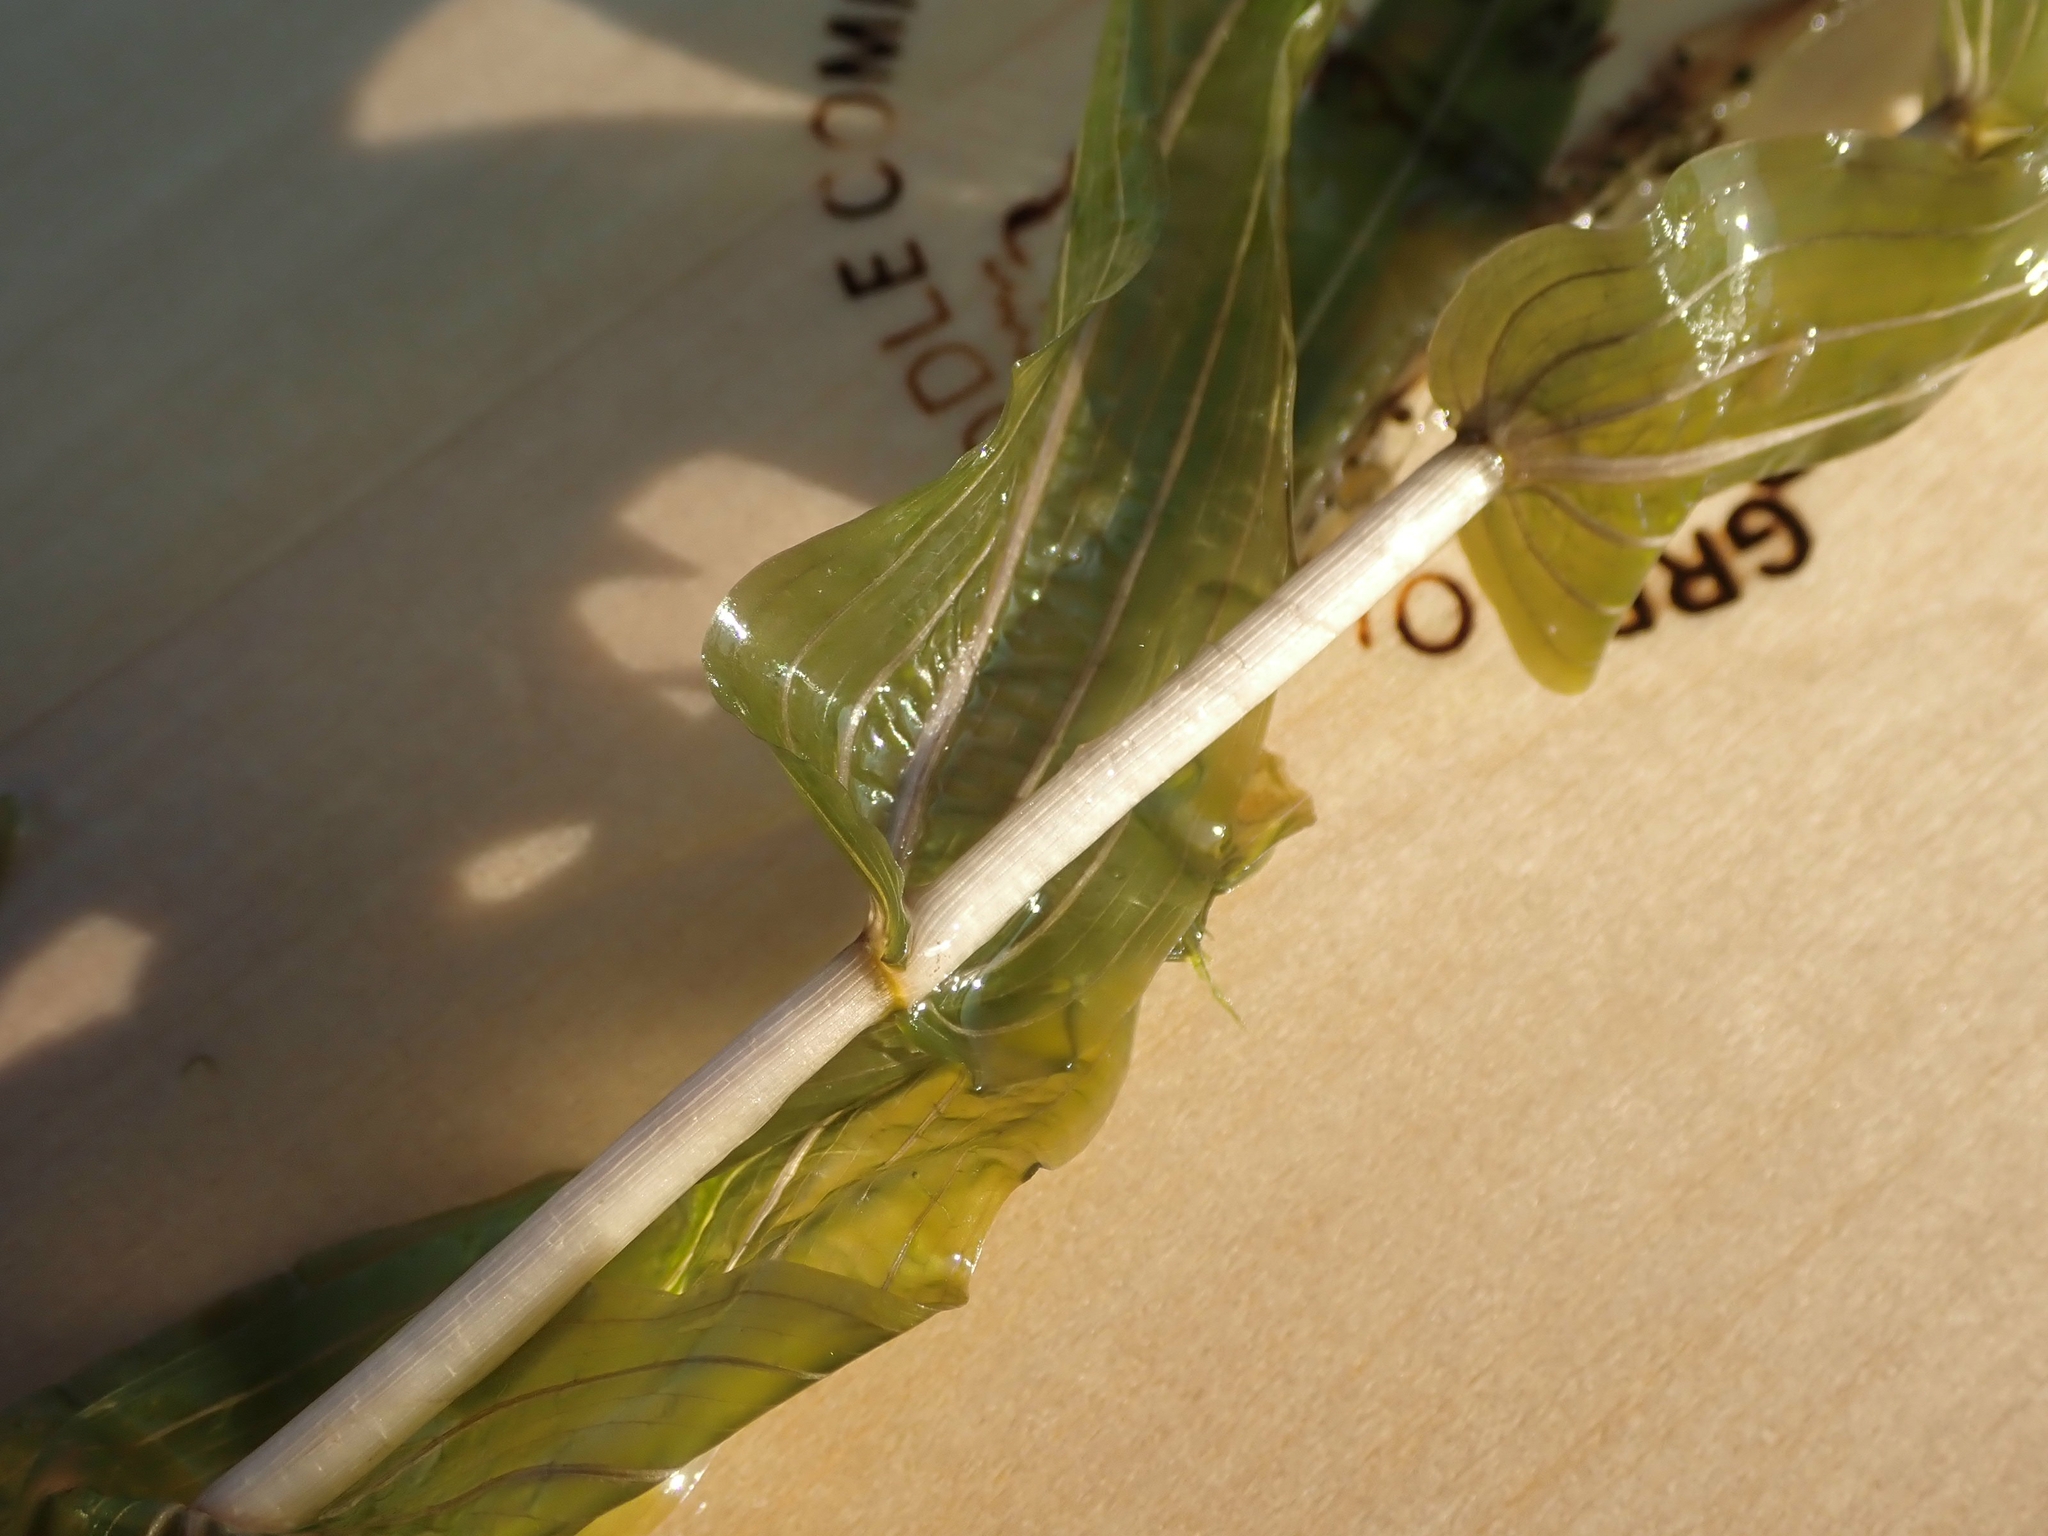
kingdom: Plantae
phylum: Tracheophyta
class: Liliopsida
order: Alismatales
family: Potamogetonaceae
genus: Potamogeton
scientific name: Potamogeton richardsonii
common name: Richardson's pondweed
